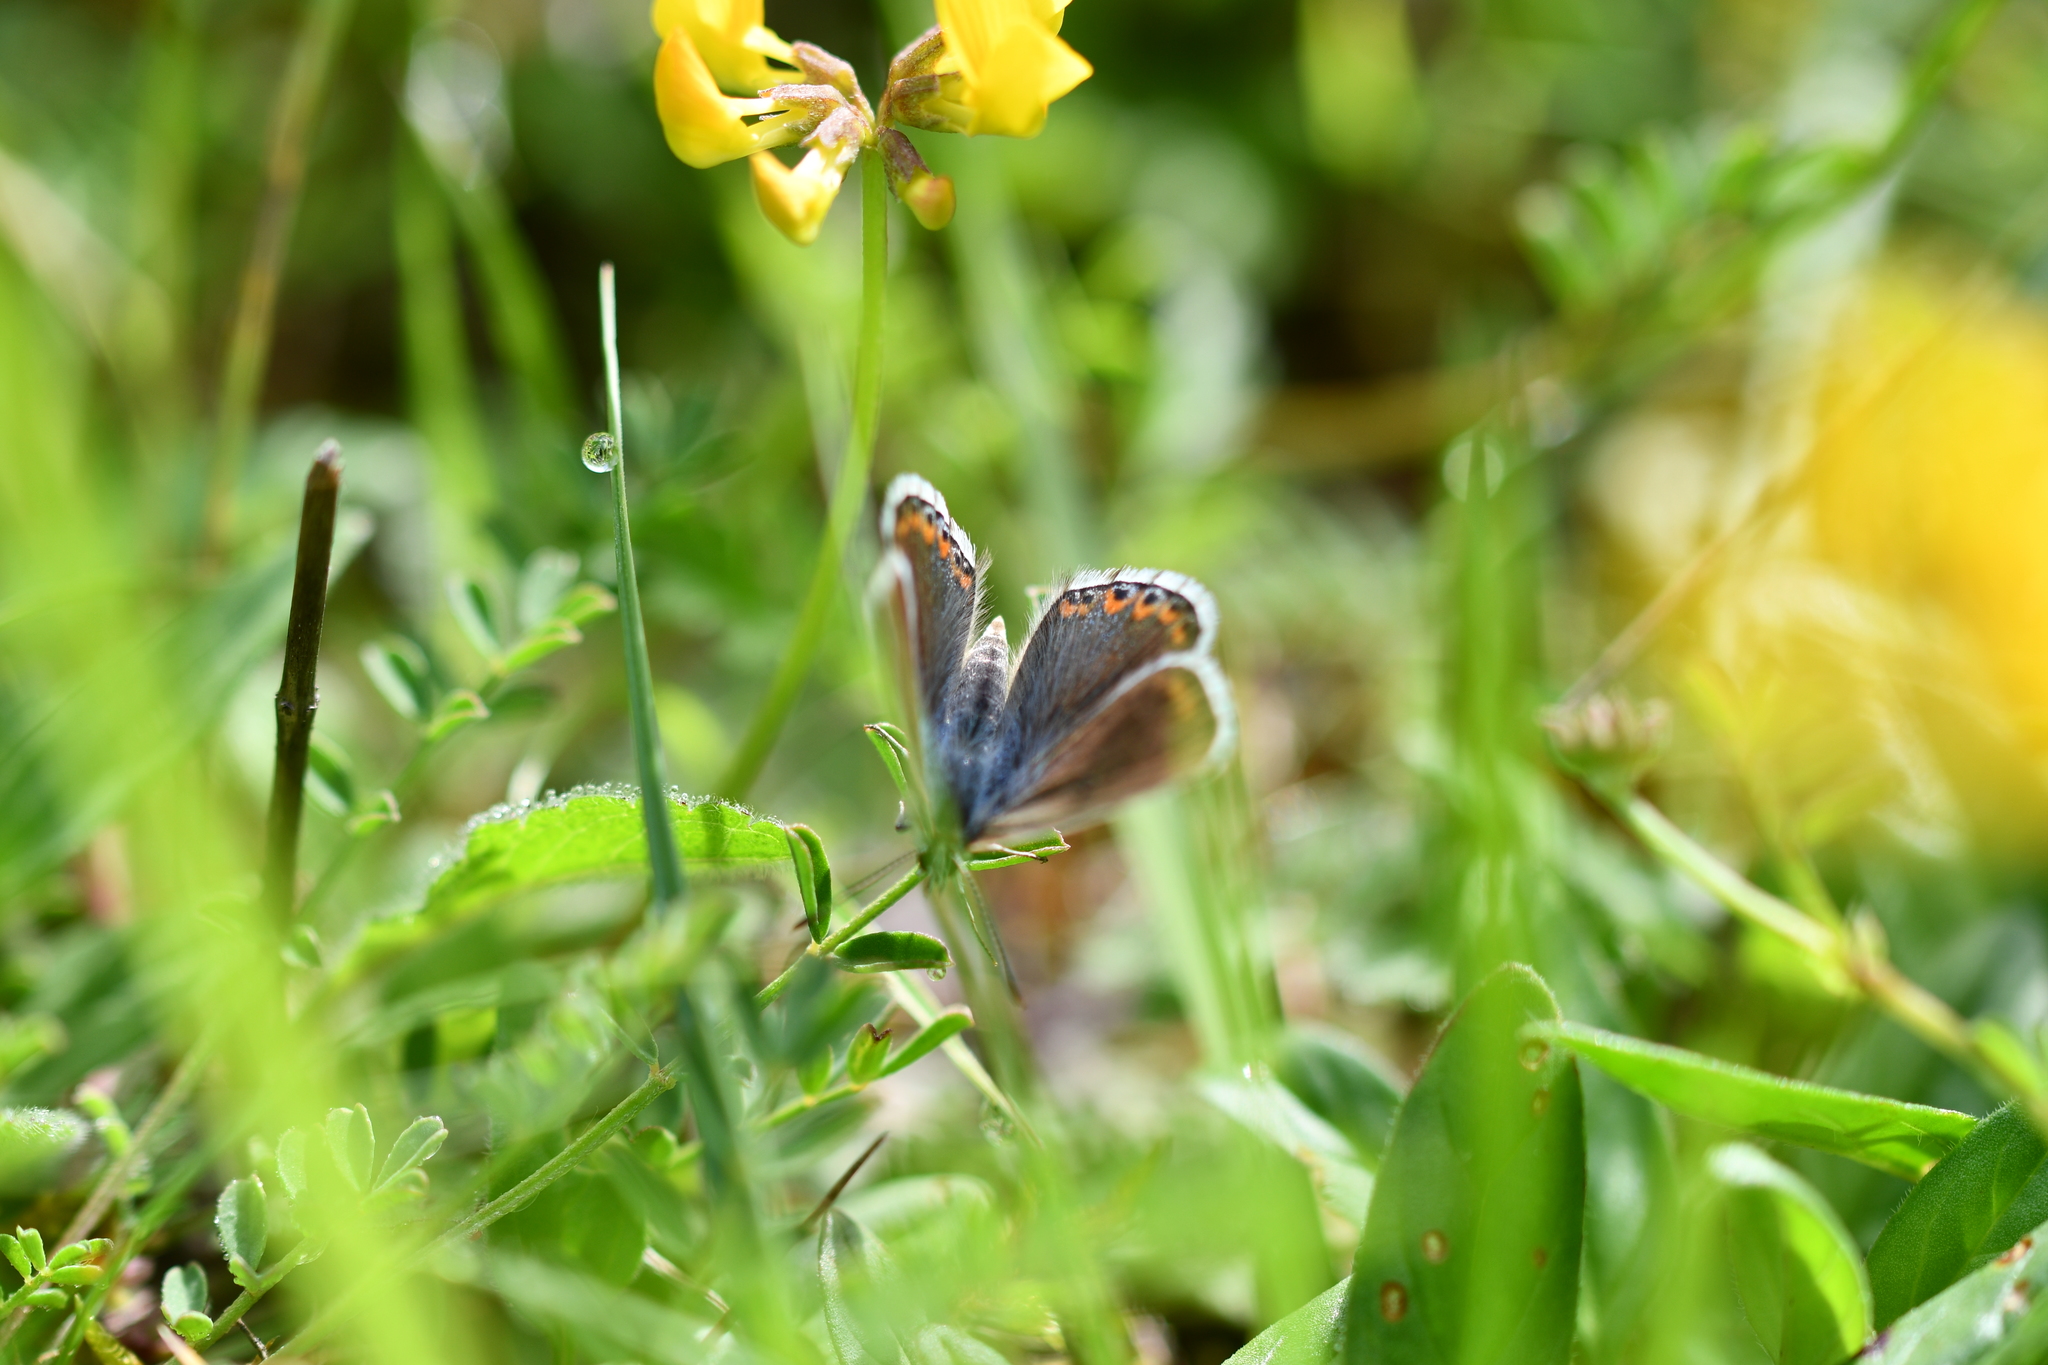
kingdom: Animalia
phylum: Arthropoda
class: Insecta
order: Lepidoptera
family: Lycaenidae
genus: Lysandra
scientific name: Lysandra bellargus
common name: Adonis blue
